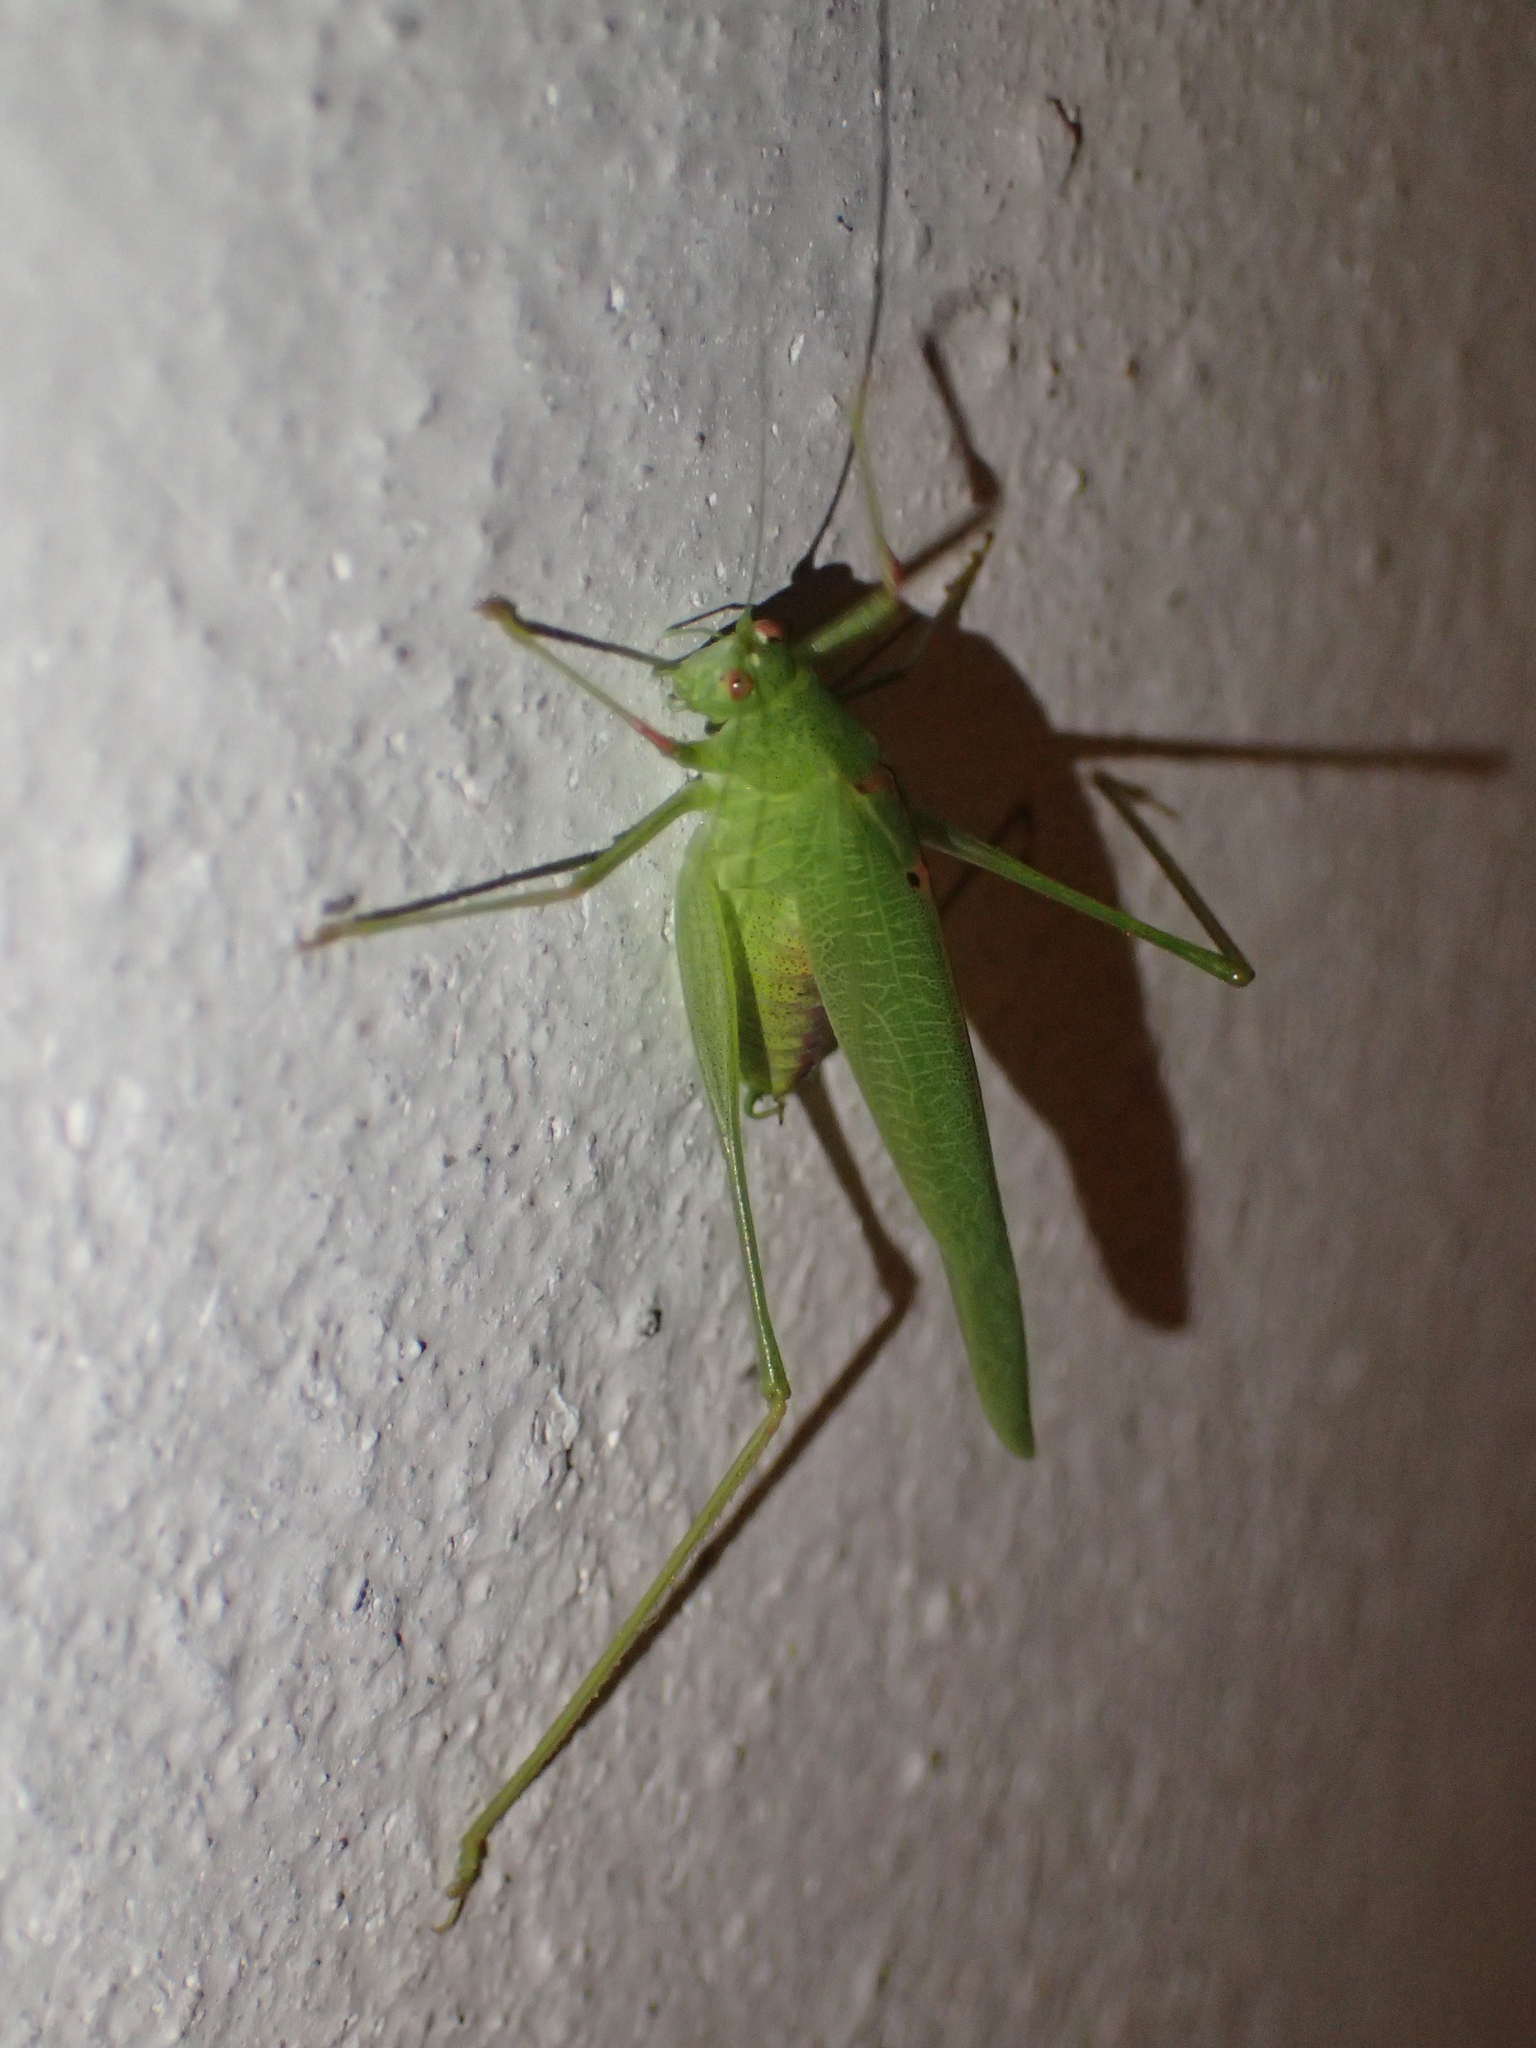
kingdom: Animalia
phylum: Arthropoda
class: Insecta
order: Orthoptera
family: Tettigoniidae
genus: Phaneroptera
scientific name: Phaneroptera nana
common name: Southern sickle bush-cricket
